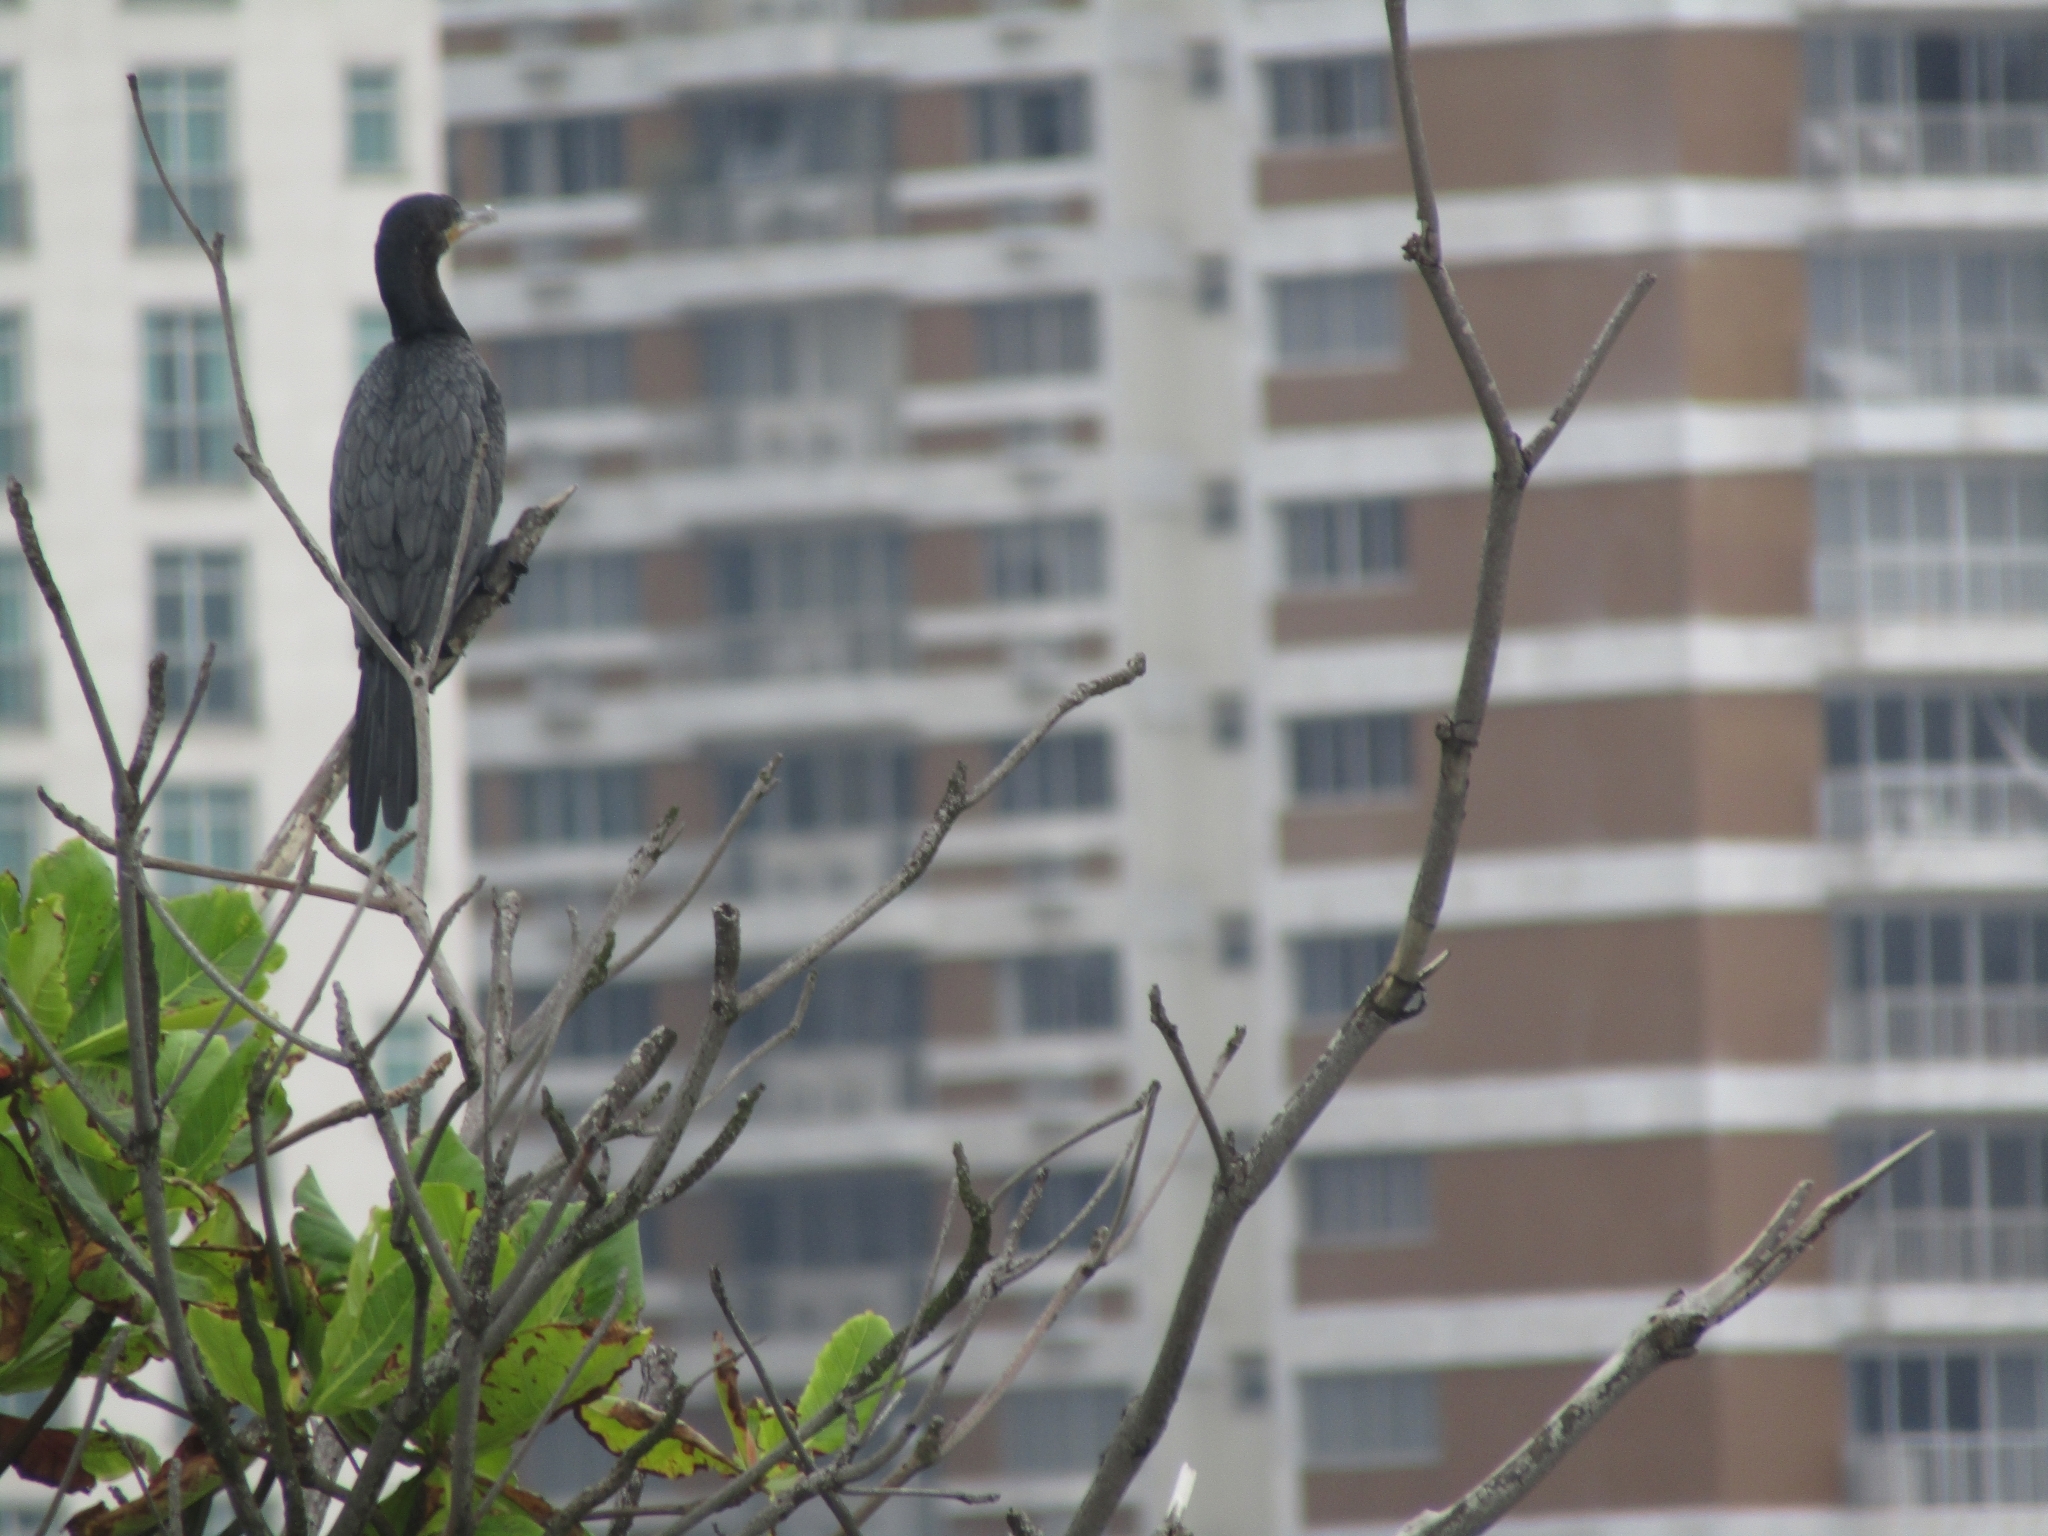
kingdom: Animalia
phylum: Chordata
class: Aves
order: Suliformes
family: Phalacrocoracidae
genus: Phalacrocorax
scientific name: Phalacrocorax brasilianus
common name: Neotropic cormorant
